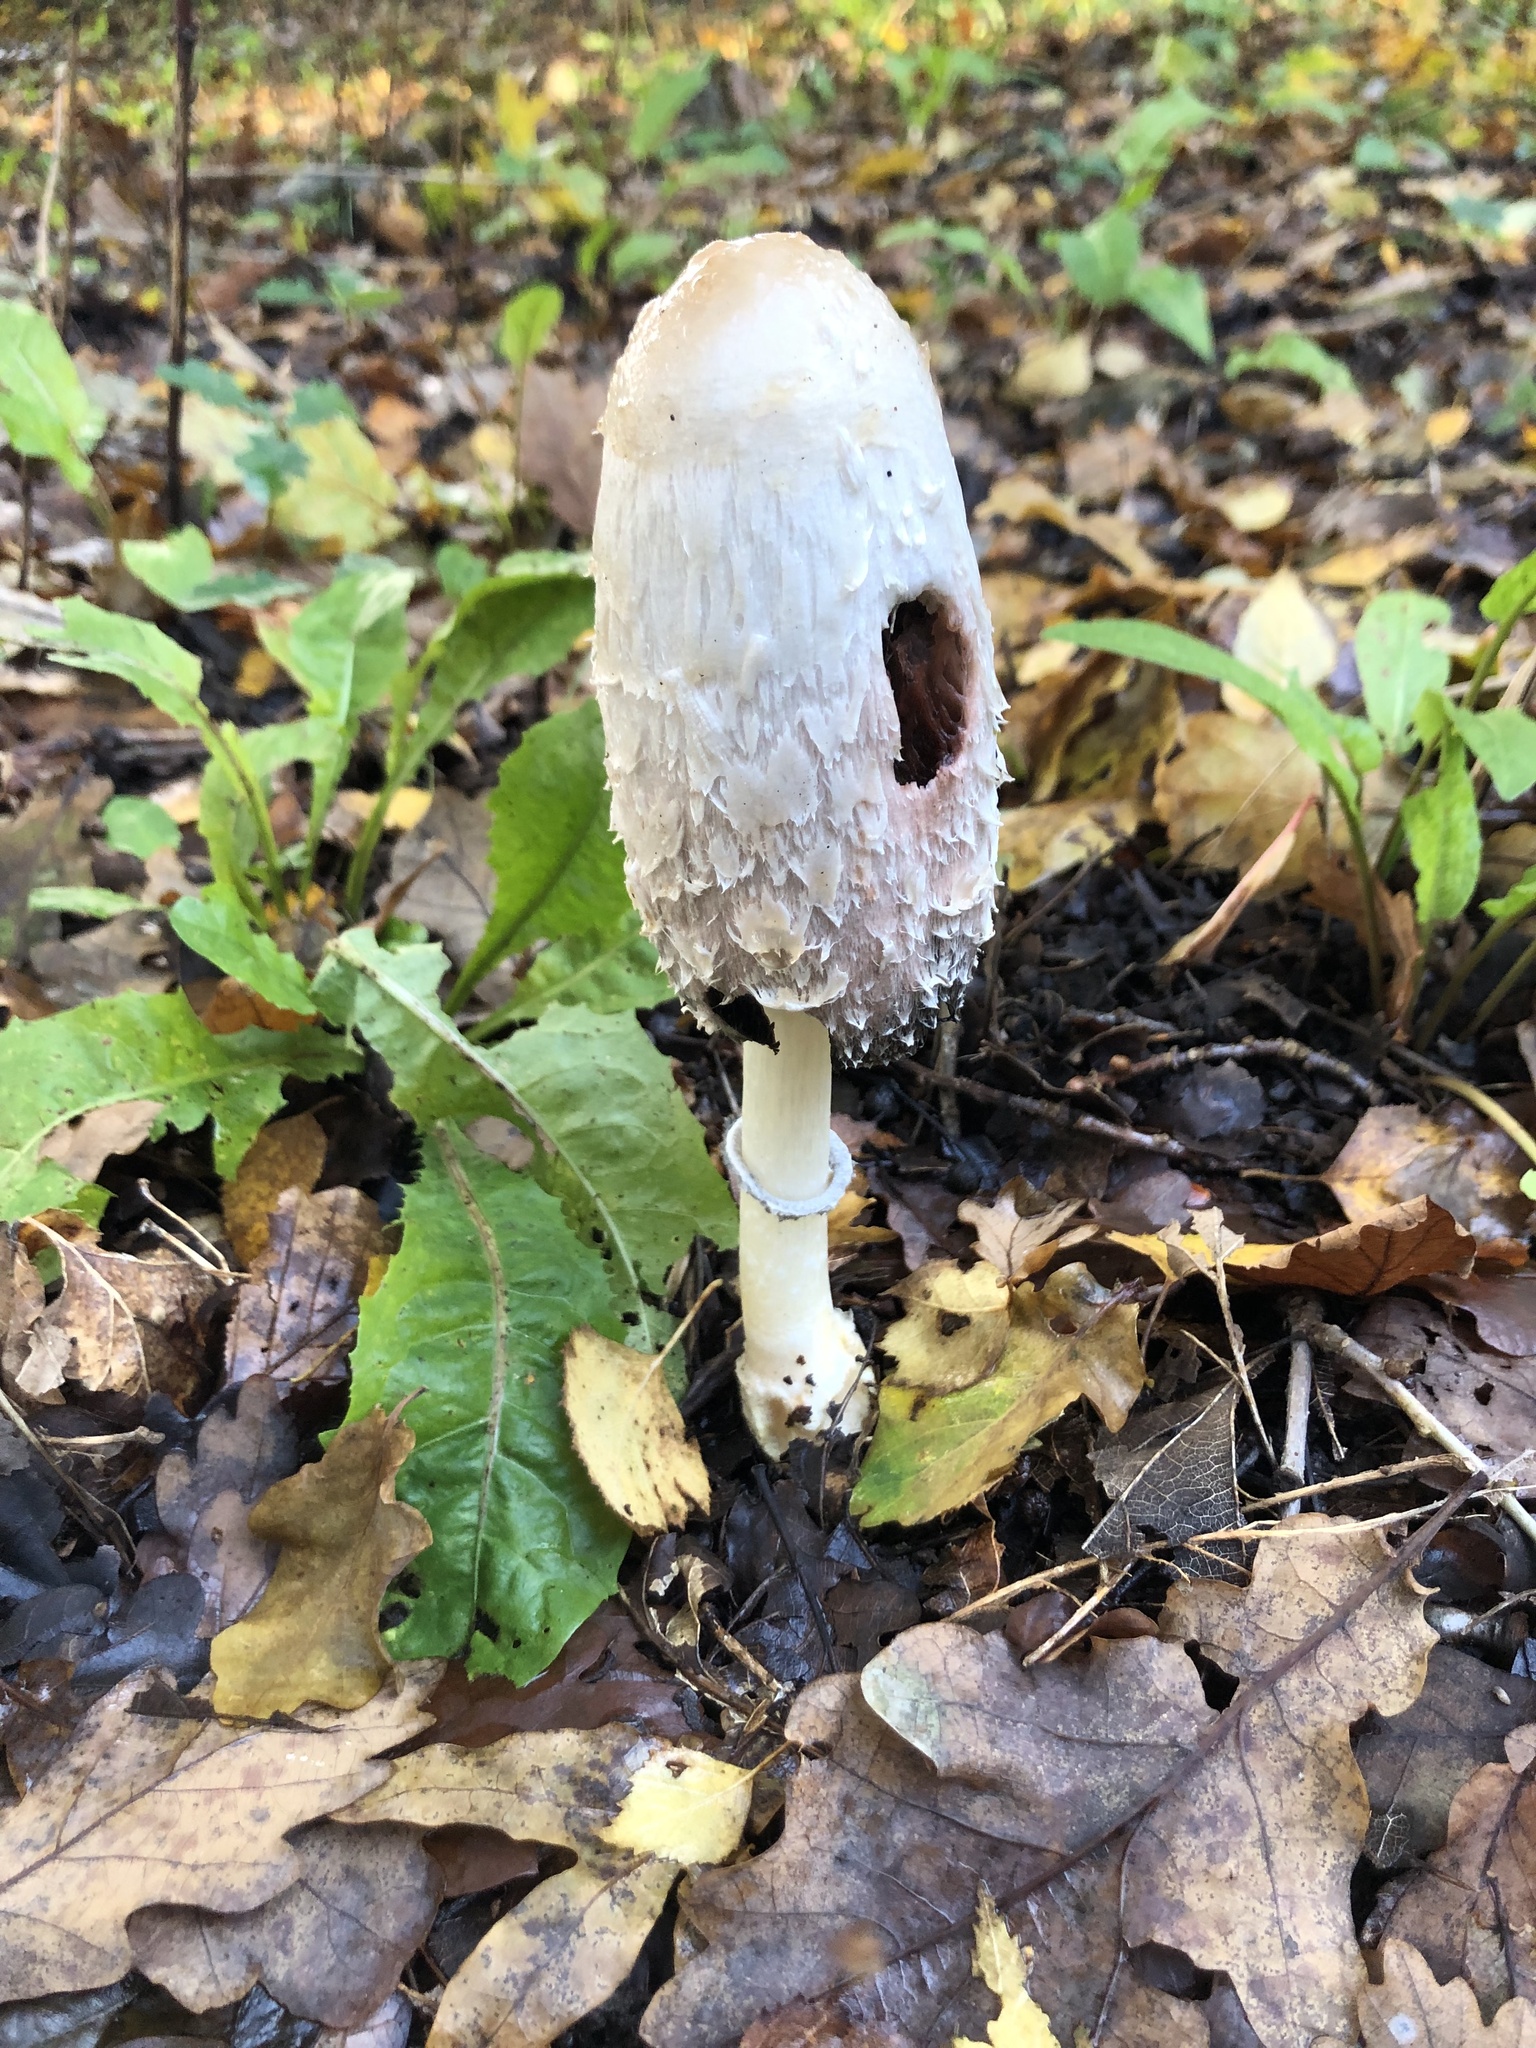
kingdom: Fungi
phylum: Basidiomycota
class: Agaricomycetes
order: Agaricales
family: Agaricaceae
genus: Coprinus
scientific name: Coprinus comatus
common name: Lawyer's wig
